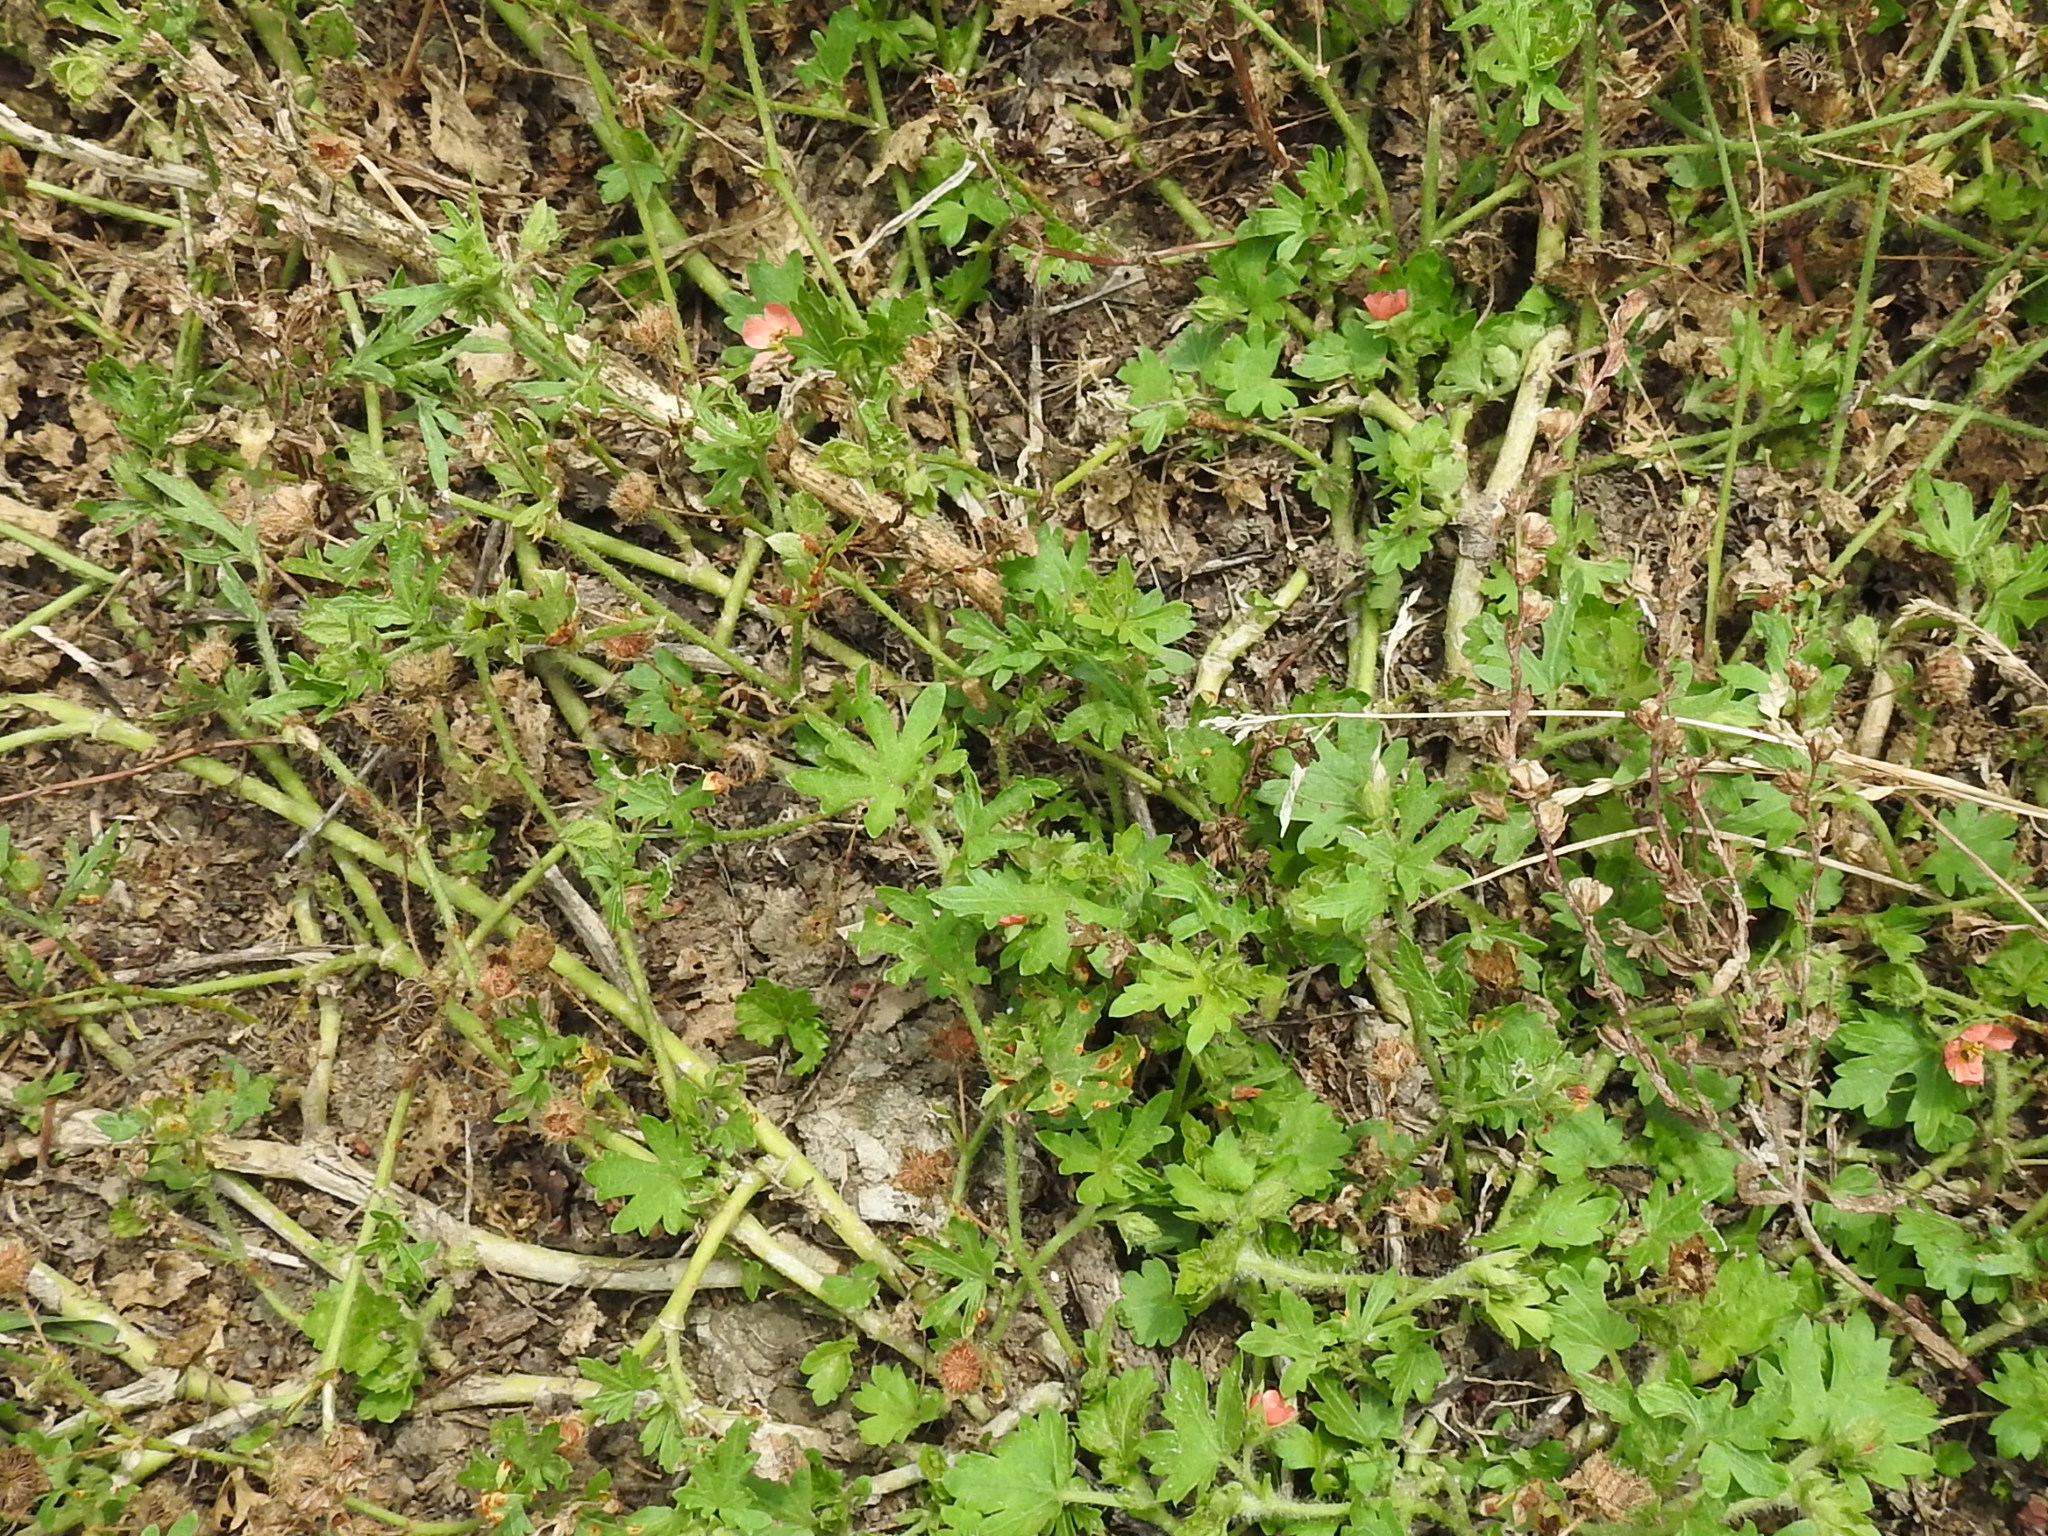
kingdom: Plantae
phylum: Tracheophyta
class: Magnoliopsida
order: Malvales
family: Malvaceae
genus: Modiola
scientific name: Modiola caroliniana
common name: Carolina bristlemallow
